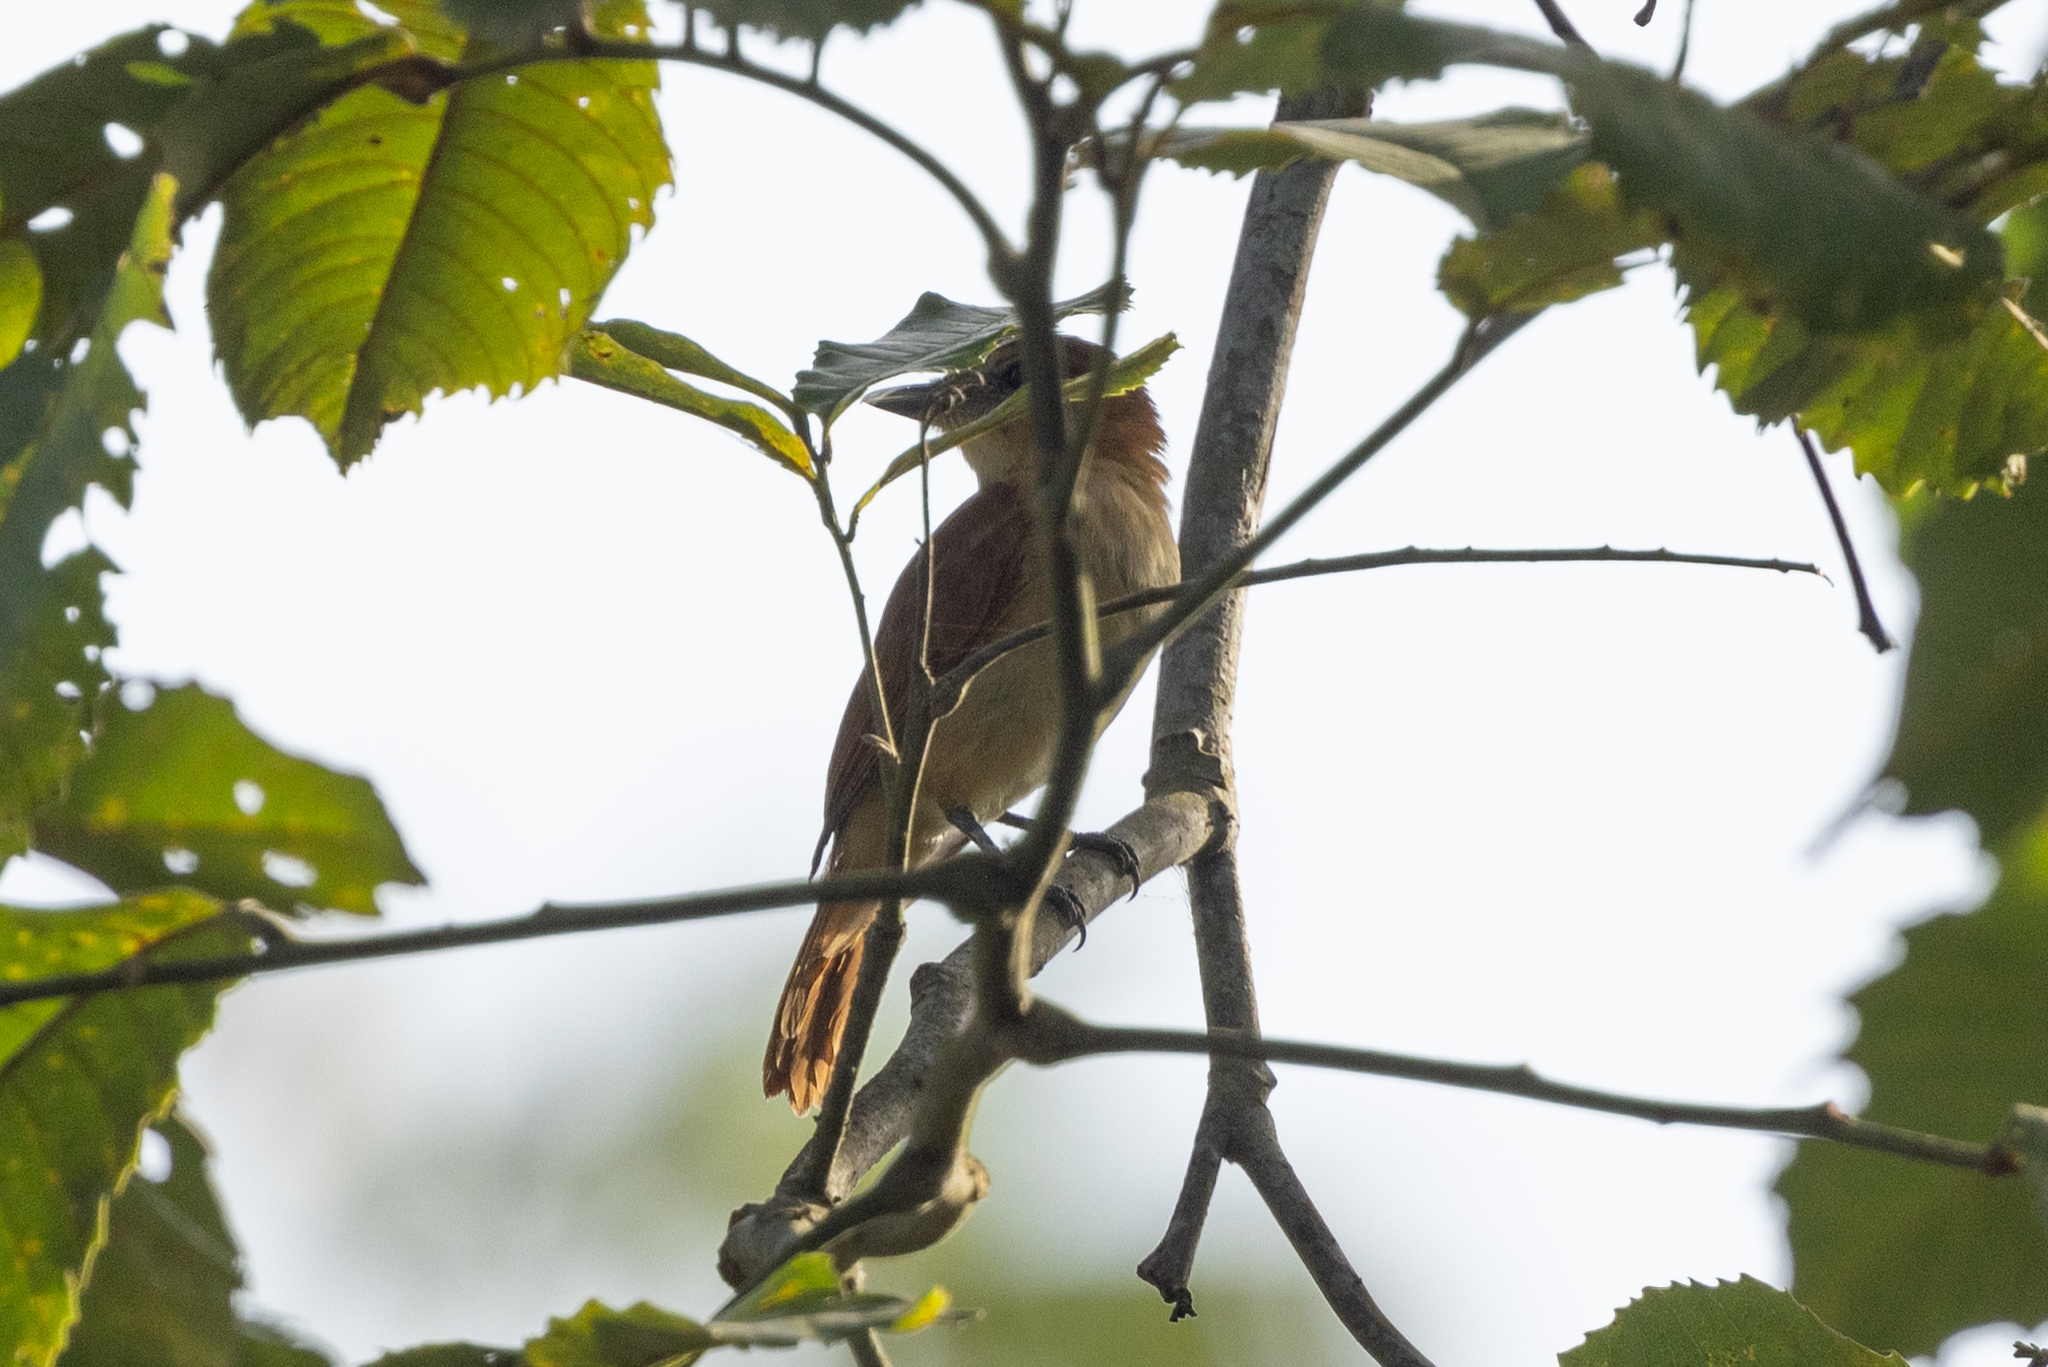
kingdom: Animalia
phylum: Chordata
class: Aves
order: Passeriformes
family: Cotingidae
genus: Pachyramphus
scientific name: Pachyramphus cinnamomeus
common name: Cinnamon becard
